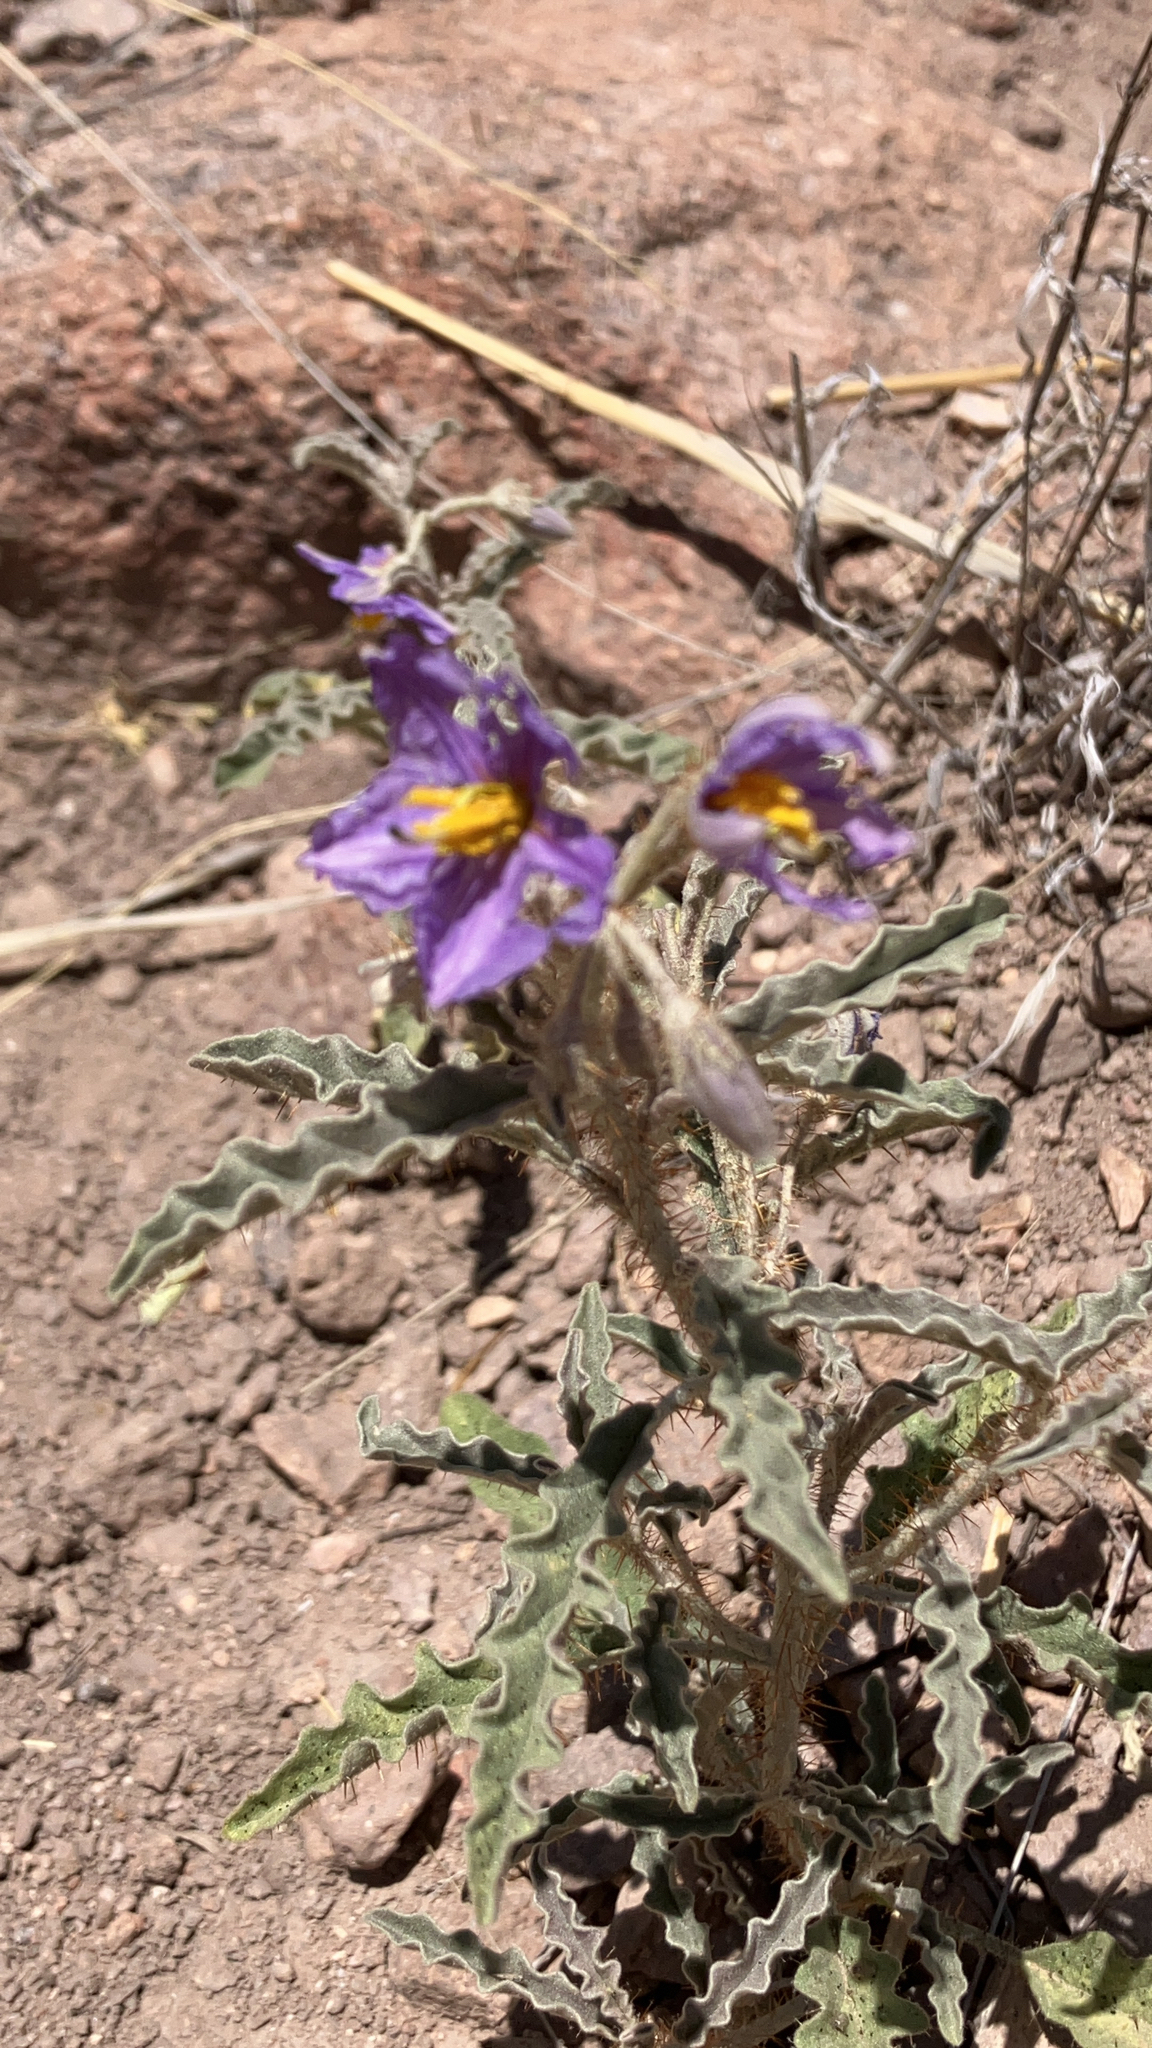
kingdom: Plantae
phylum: Tracheophyta
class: Magnoliopsida
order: Solanales
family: Solanaceae
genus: Solanum
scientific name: Solanum elaeagnifolium
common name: Silverleaf nightshade
